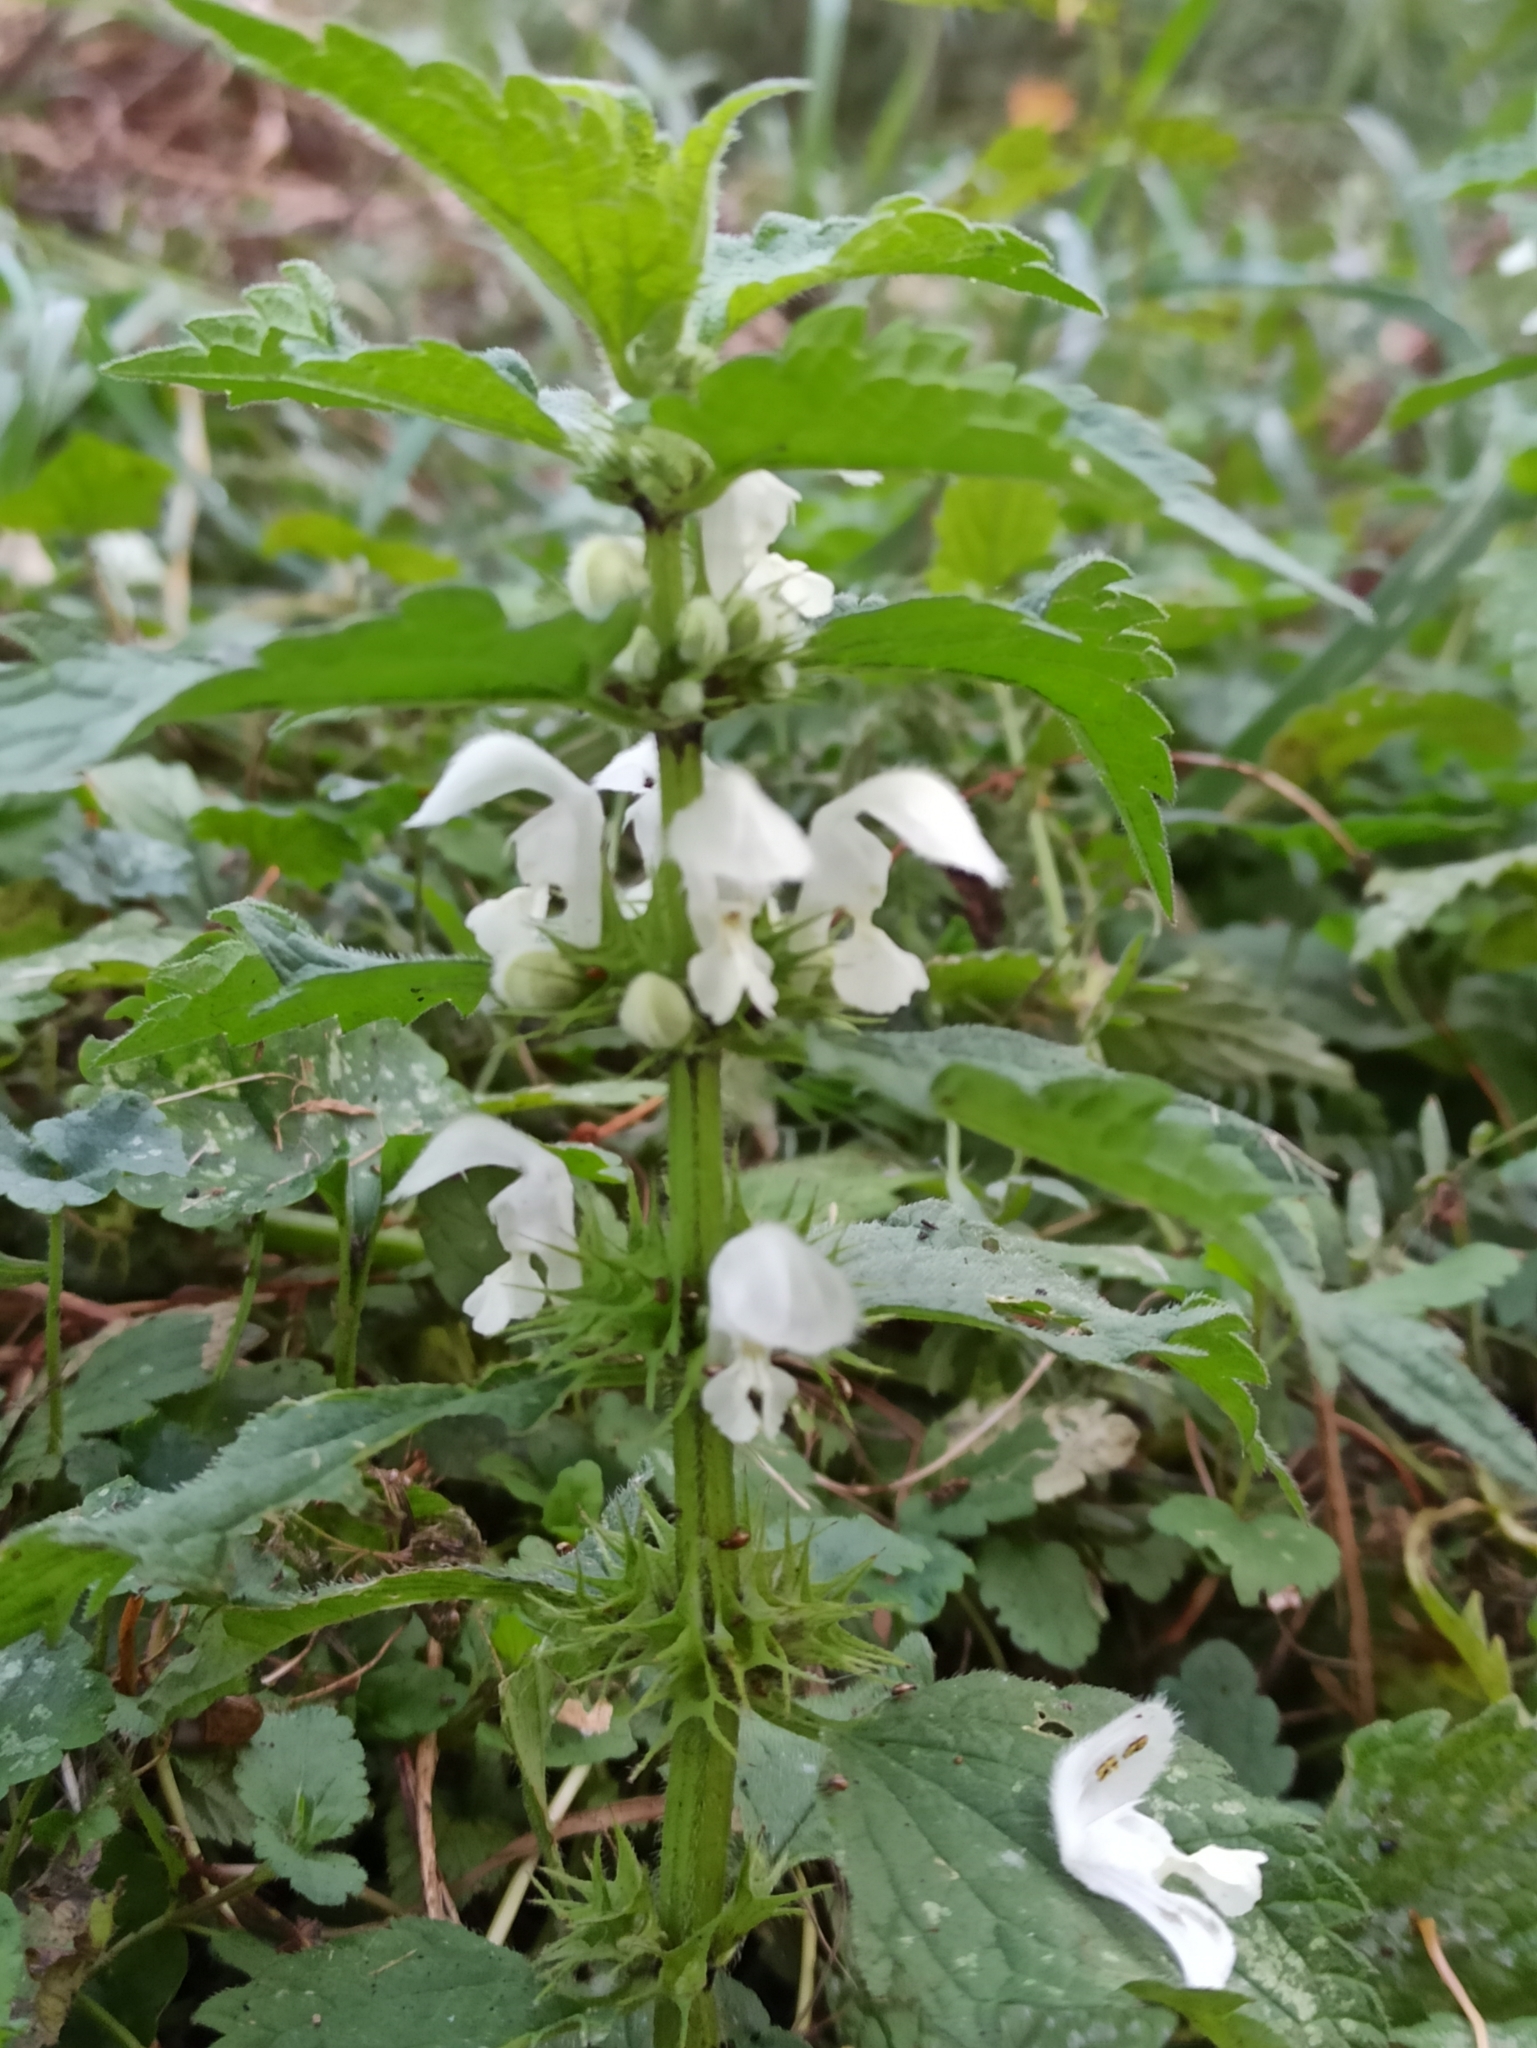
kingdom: Plantae
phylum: Tracheophyta
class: Magnoliopsida
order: Lamiales
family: Lamiaceae
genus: Lamium
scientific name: Lamium album
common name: White dead-nettle
